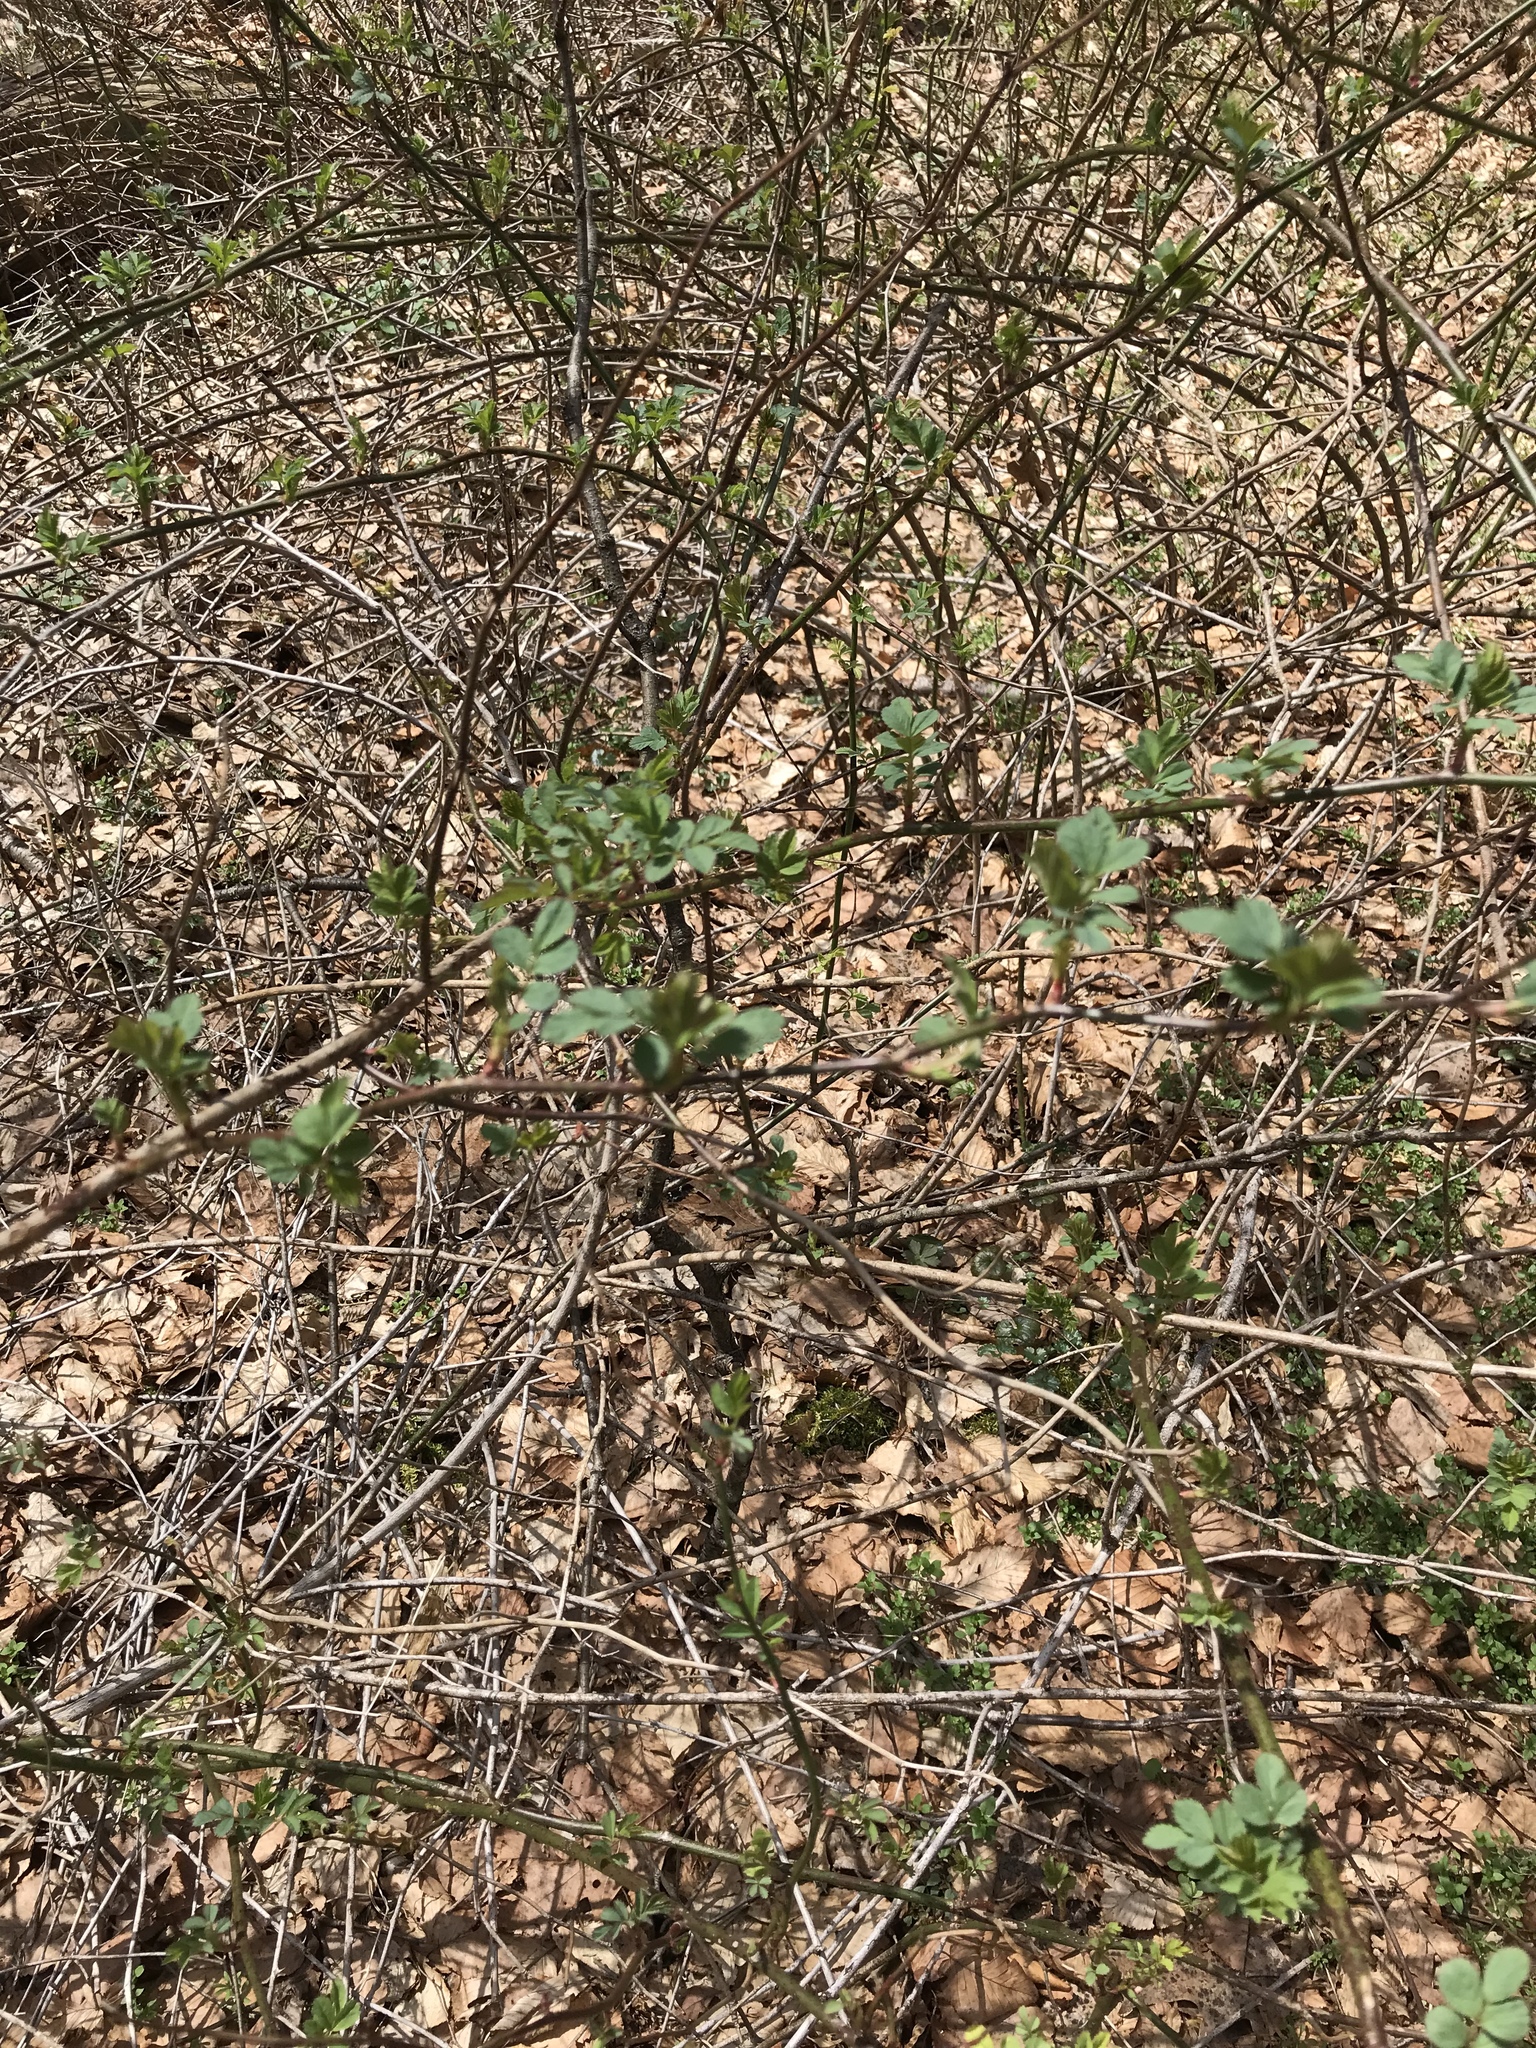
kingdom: Plantae
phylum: Tracheophyta
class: Magnoliopsida
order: Rosales
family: Rosaceae
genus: Rosa
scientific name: Rosa multiflora
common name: Multiflora rose
